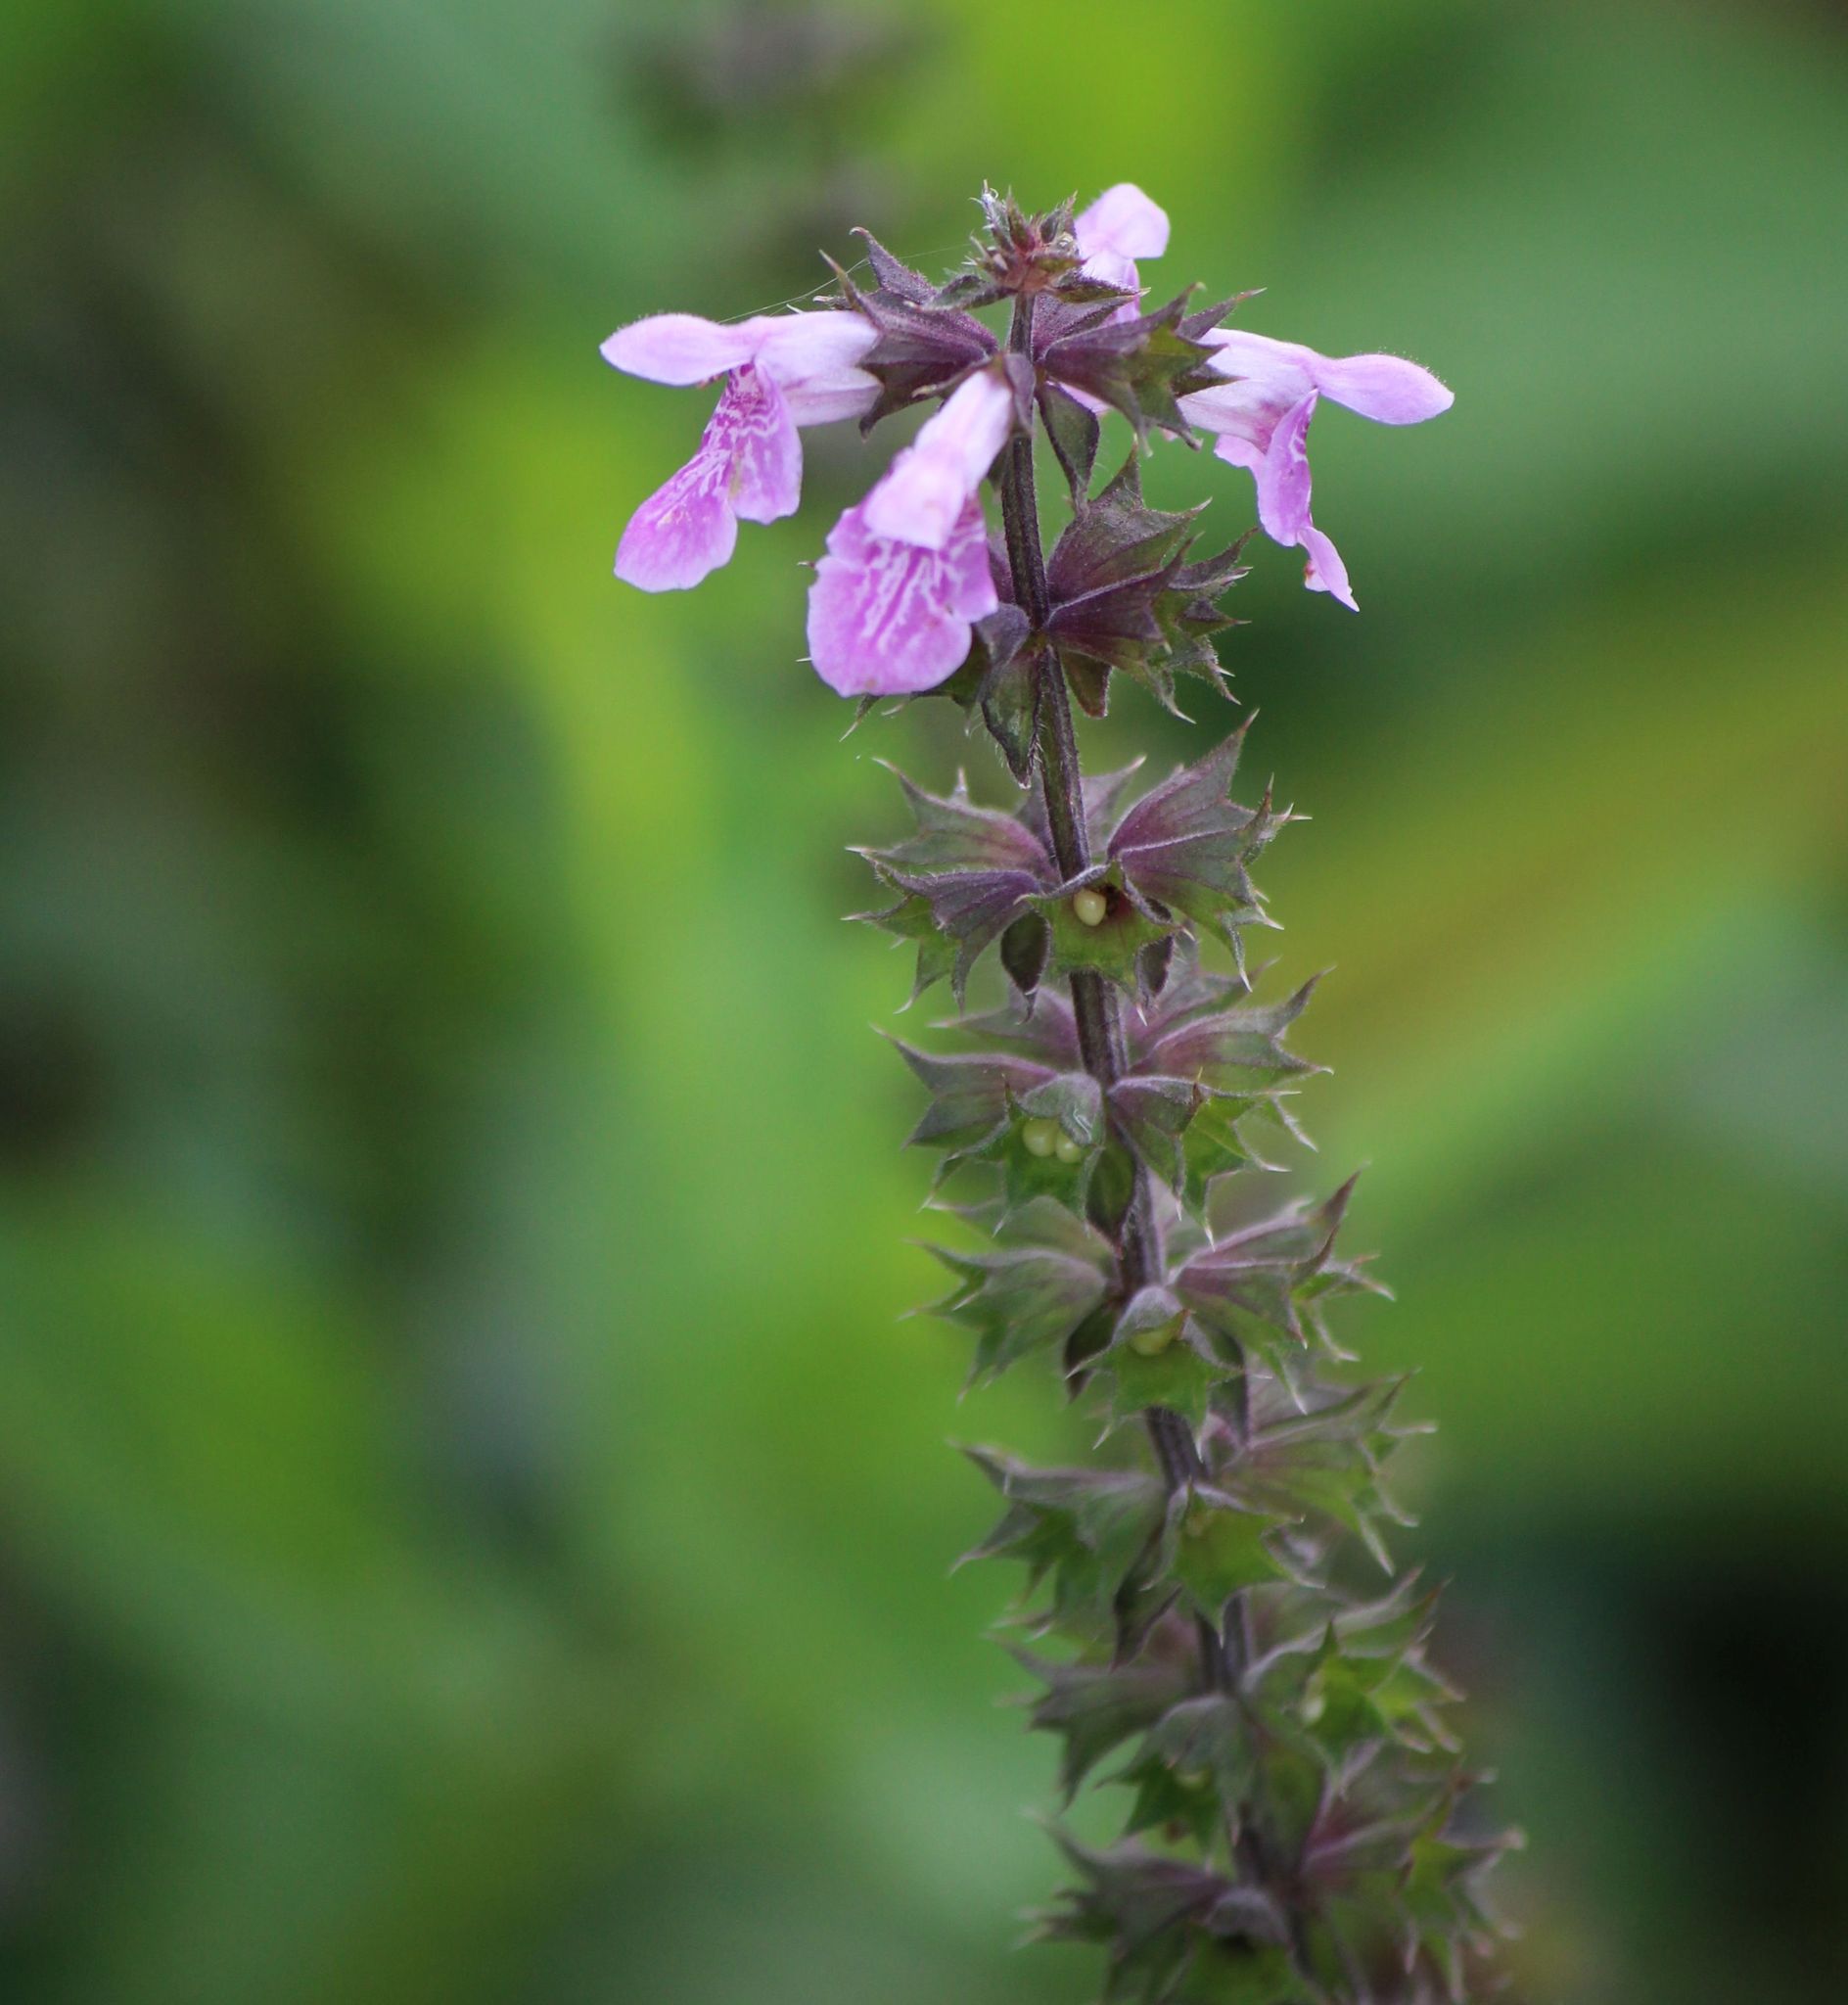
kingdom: Plantae
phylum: Tracheophyta
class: Magnoliopsida
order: Lamiales
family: Lamiaceae
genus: Stachys
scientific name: Stachys palustris
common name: Marsh woundwort
